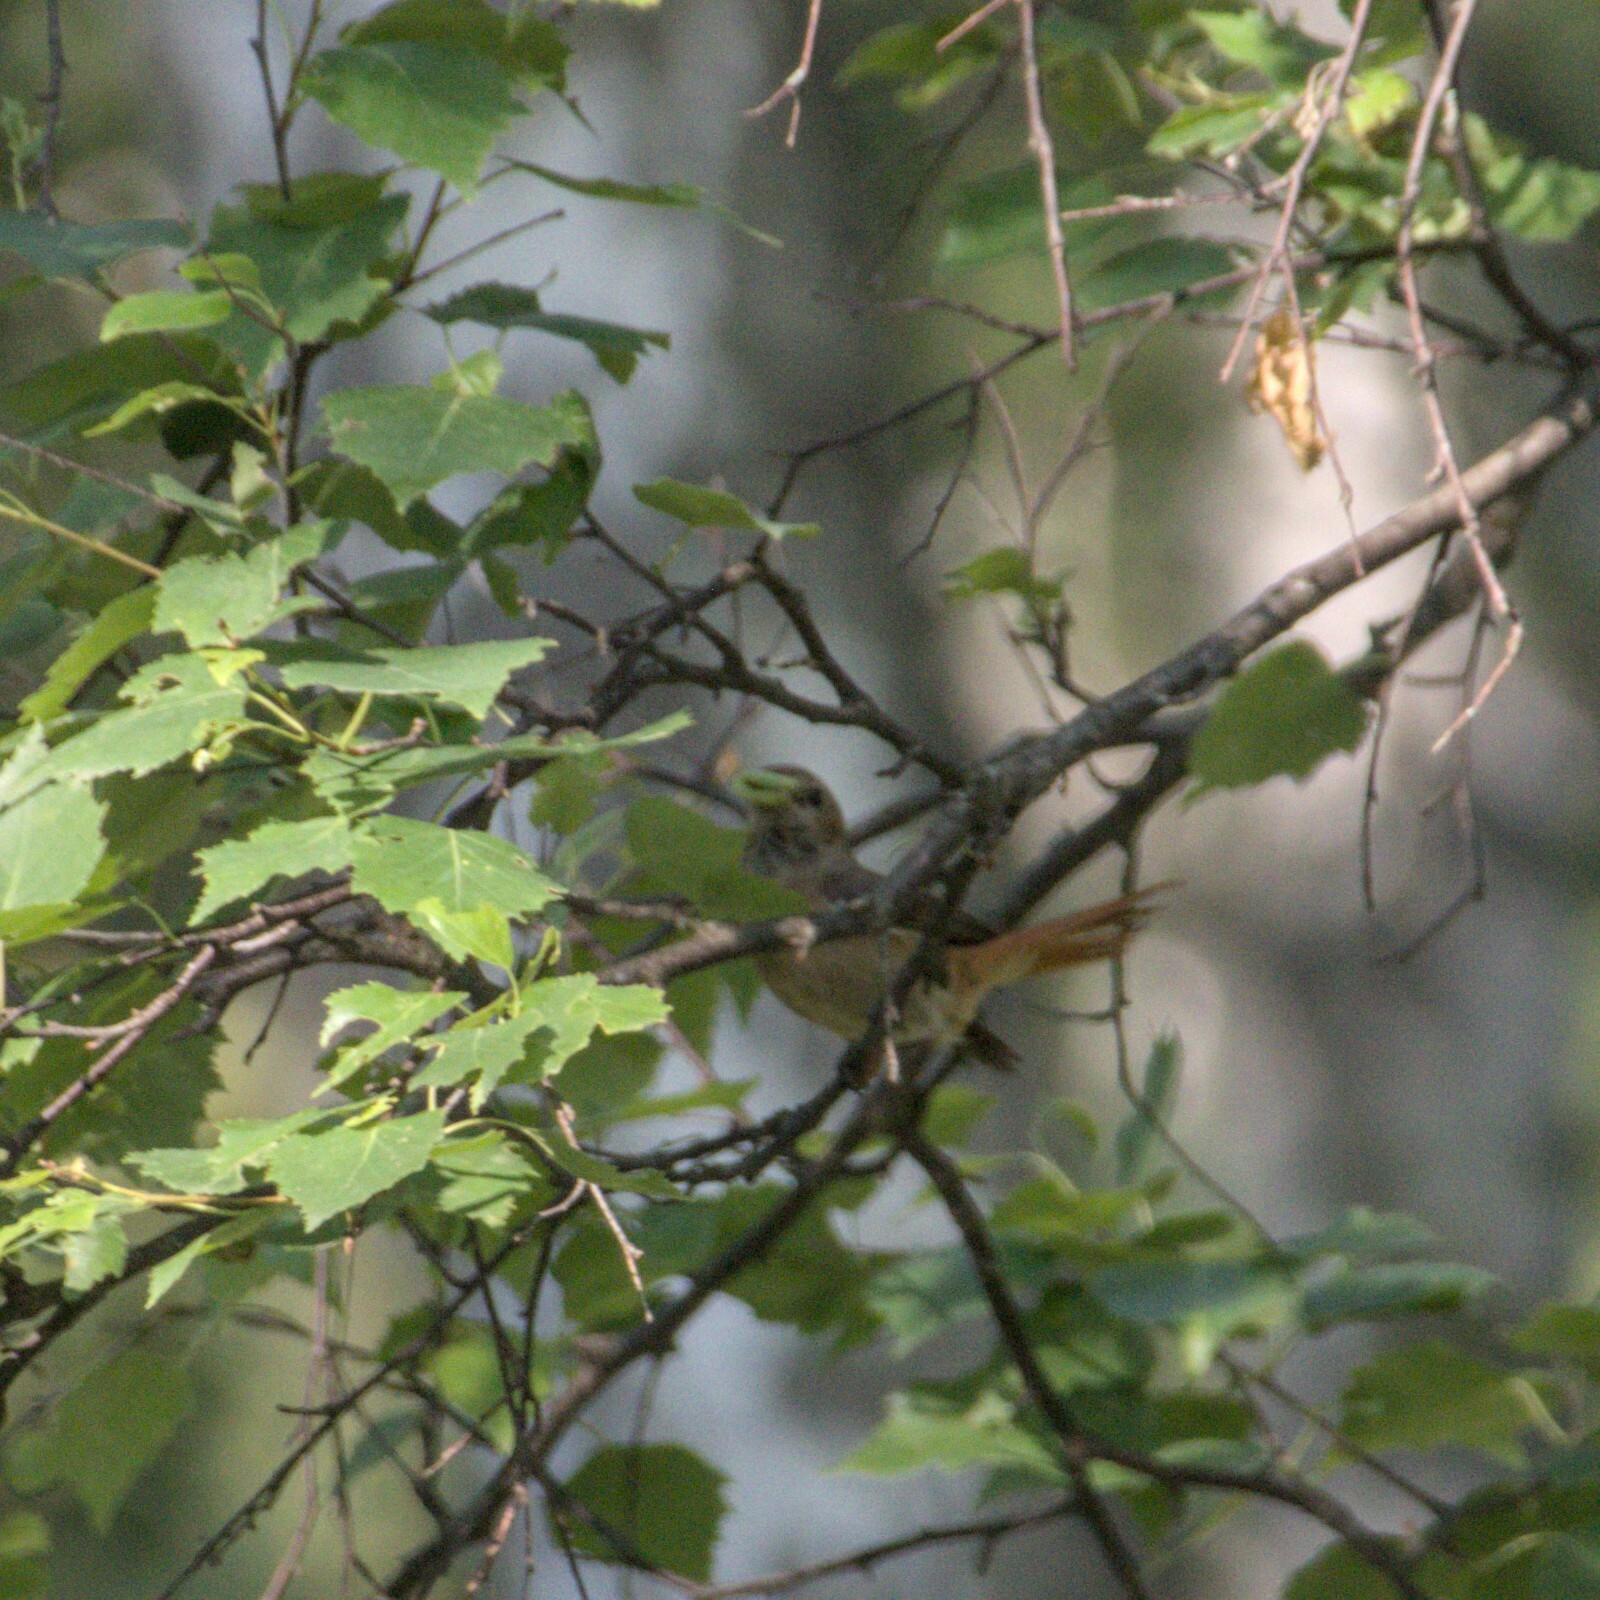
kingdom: Animalia
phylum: Chordata
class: Aves
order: Passeriformes
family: Muscicapidae
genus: Phoenicurus
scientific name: Phoenicurus phoenicurus
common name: Common redstart
